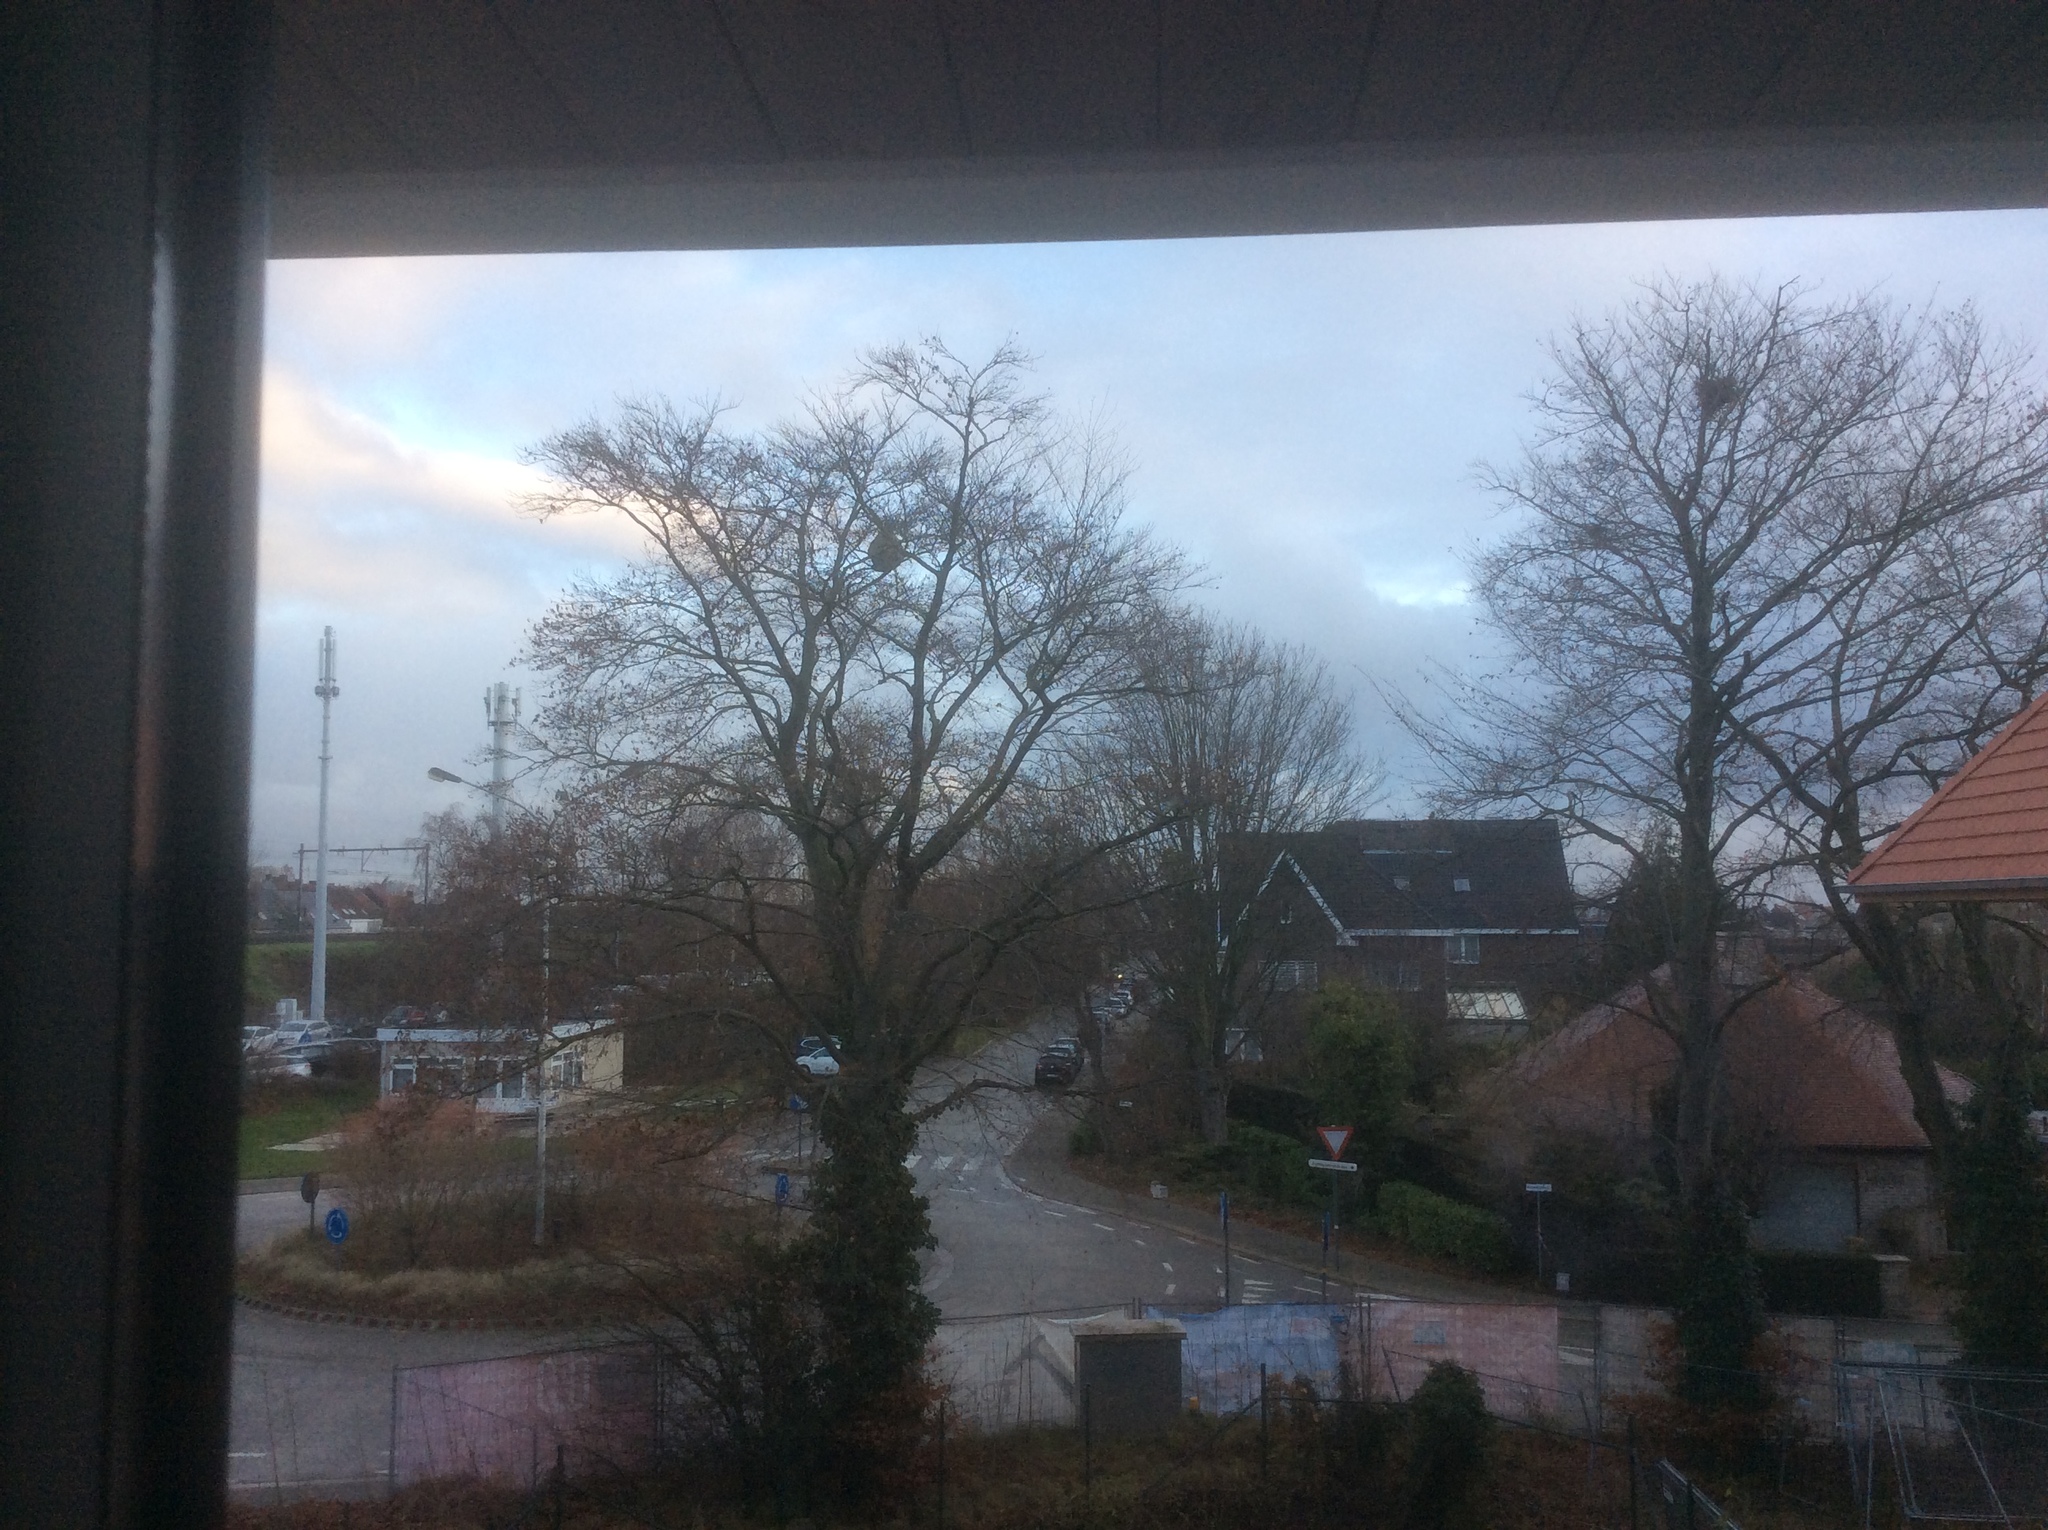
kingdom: Animalia
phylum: Arthropoda
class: Insecta
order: Hymenoptera
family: Vespidae
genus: Vespa
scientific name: Vespa velutina
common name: Asian hornet
